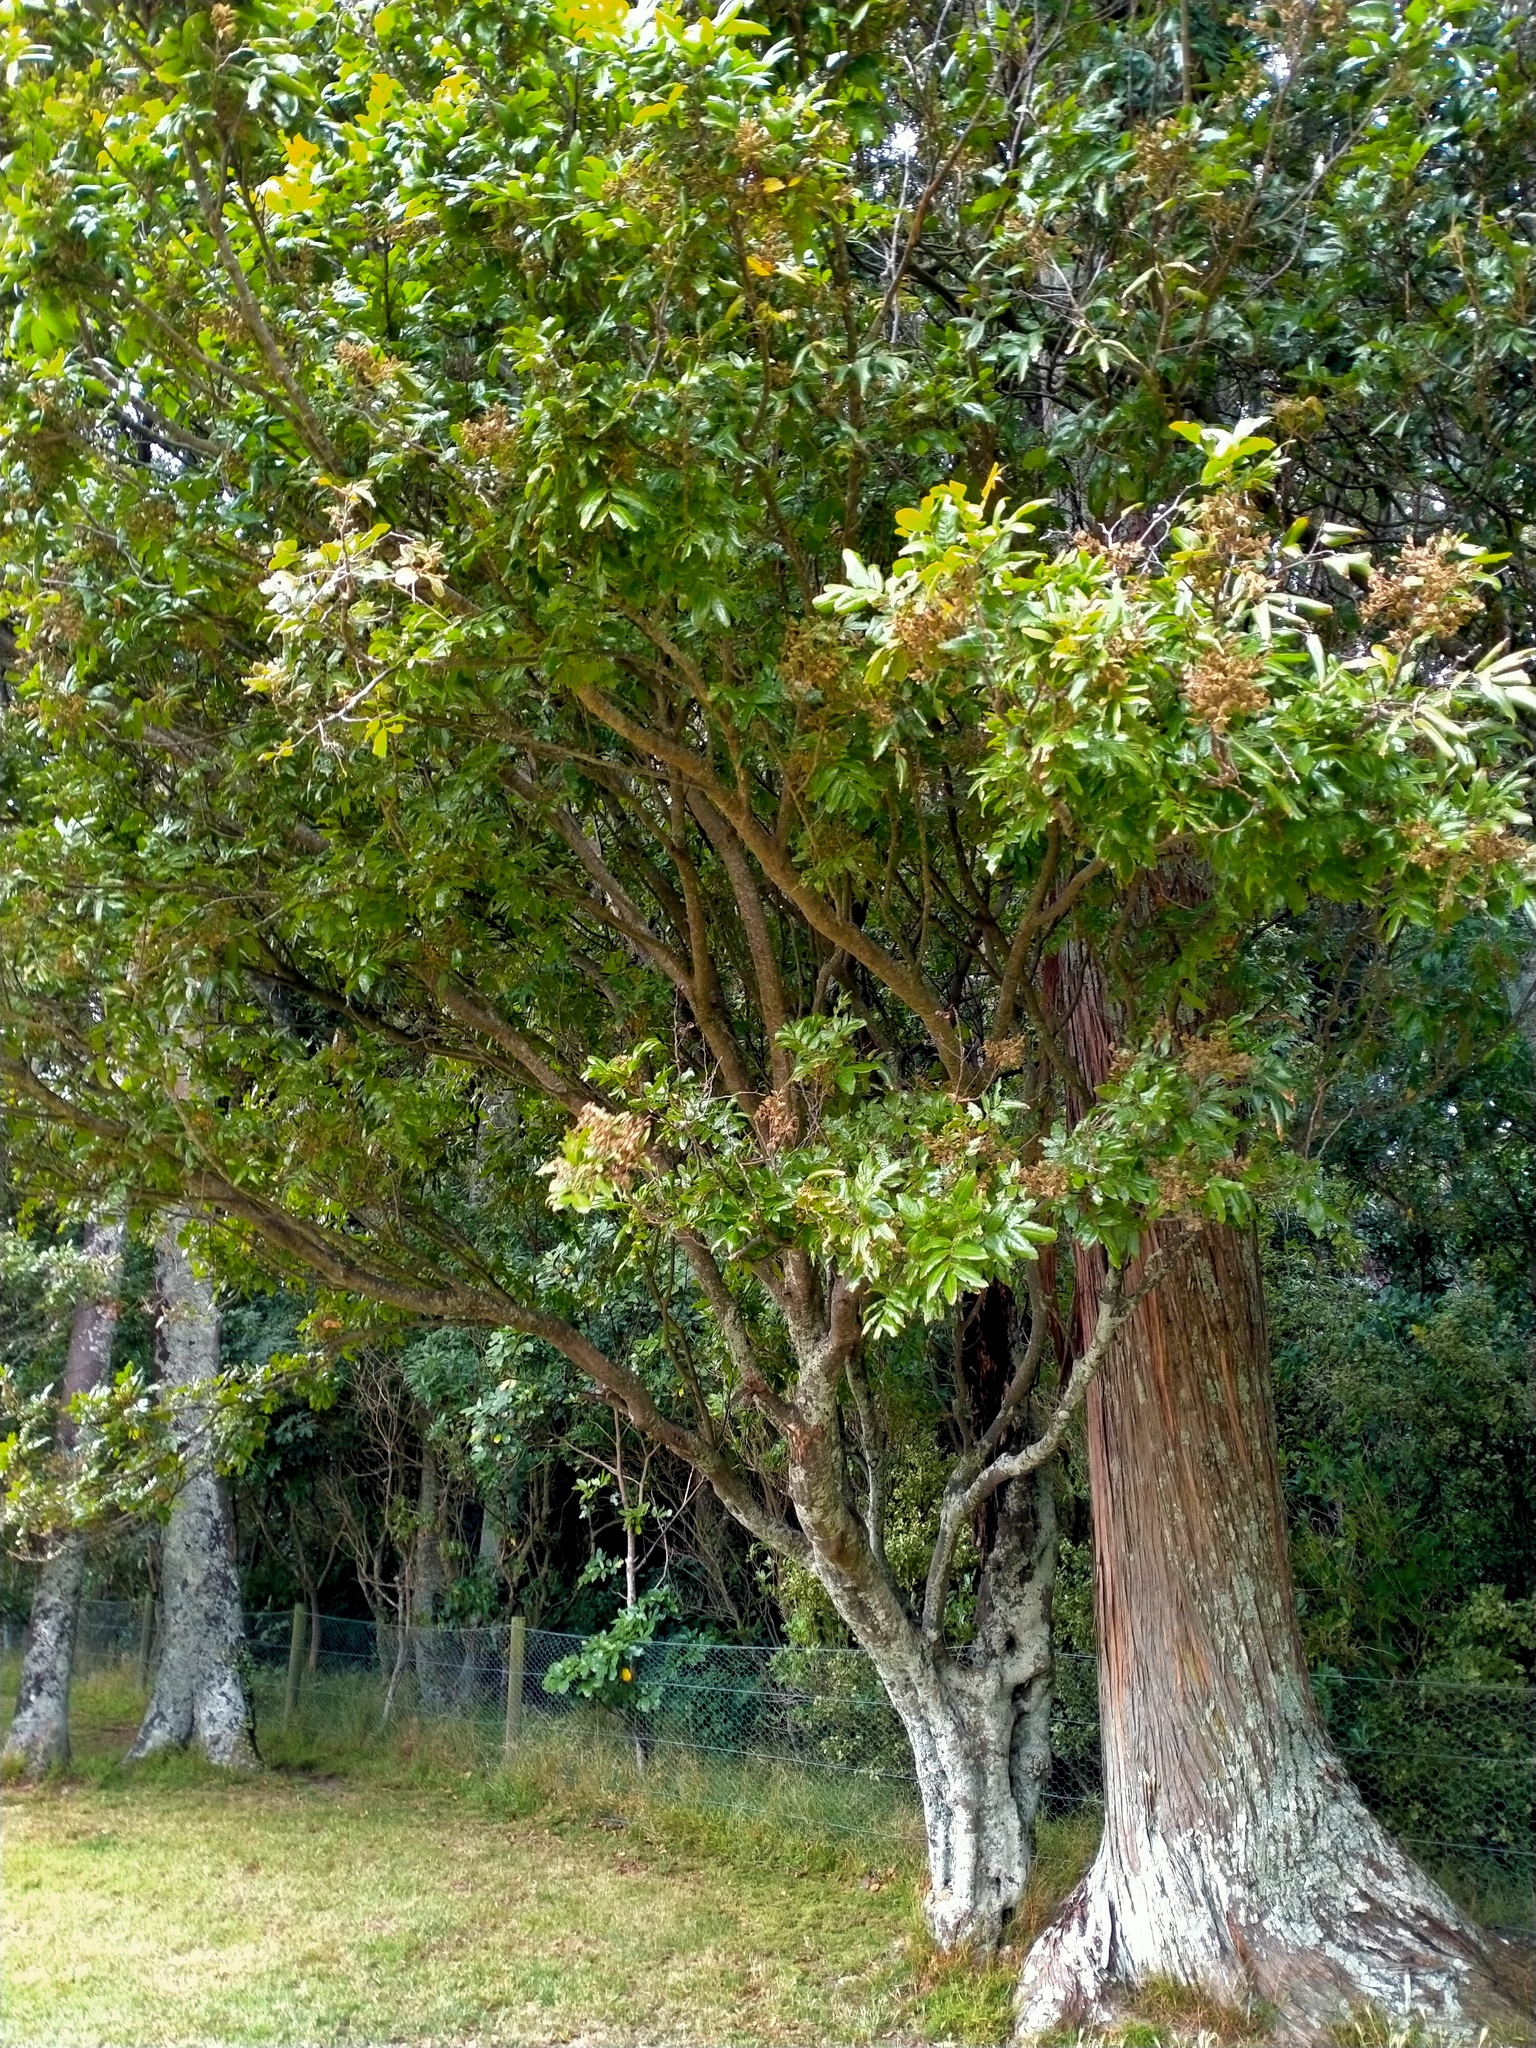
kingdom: Plantae
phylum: Tracheophyta
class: Magnoliopsida
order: Sapindales
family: Sapindaceae
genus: Alectryon
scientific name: Alectryon excelsus
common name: Three kings titoki
